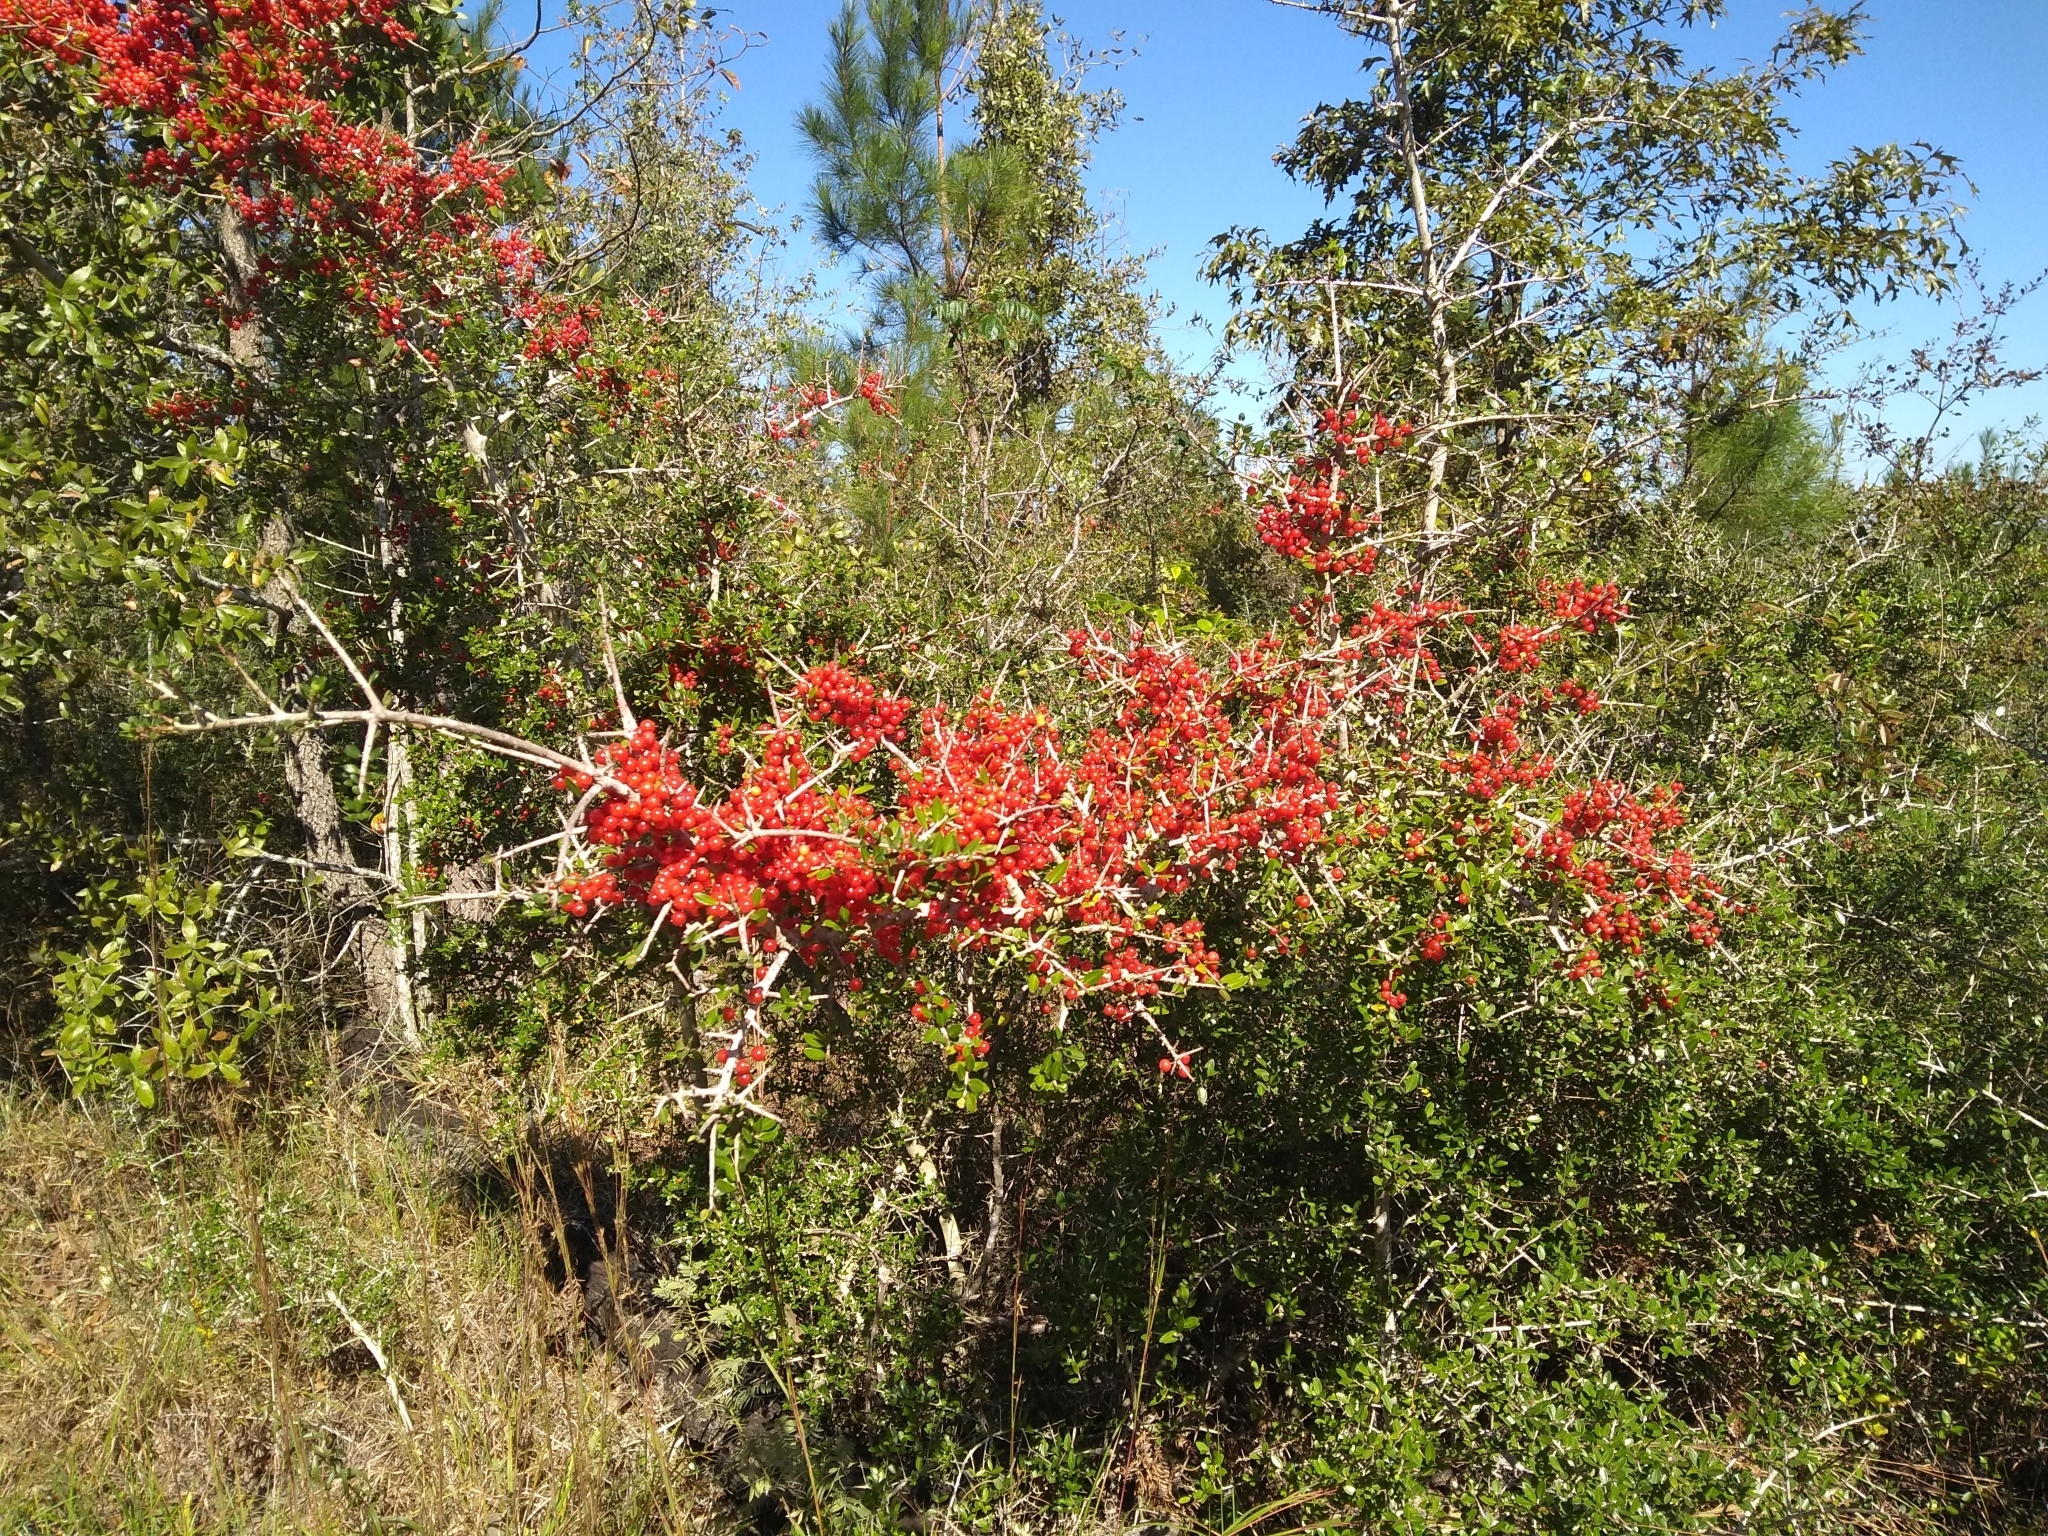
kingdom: Plantae
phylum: Tracheophyta
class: Magnoliopsida
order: Aquifoliales
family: Aquifoliaceae
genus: Ilex
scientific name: Ilex vomitoria
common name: Yaupon holly
